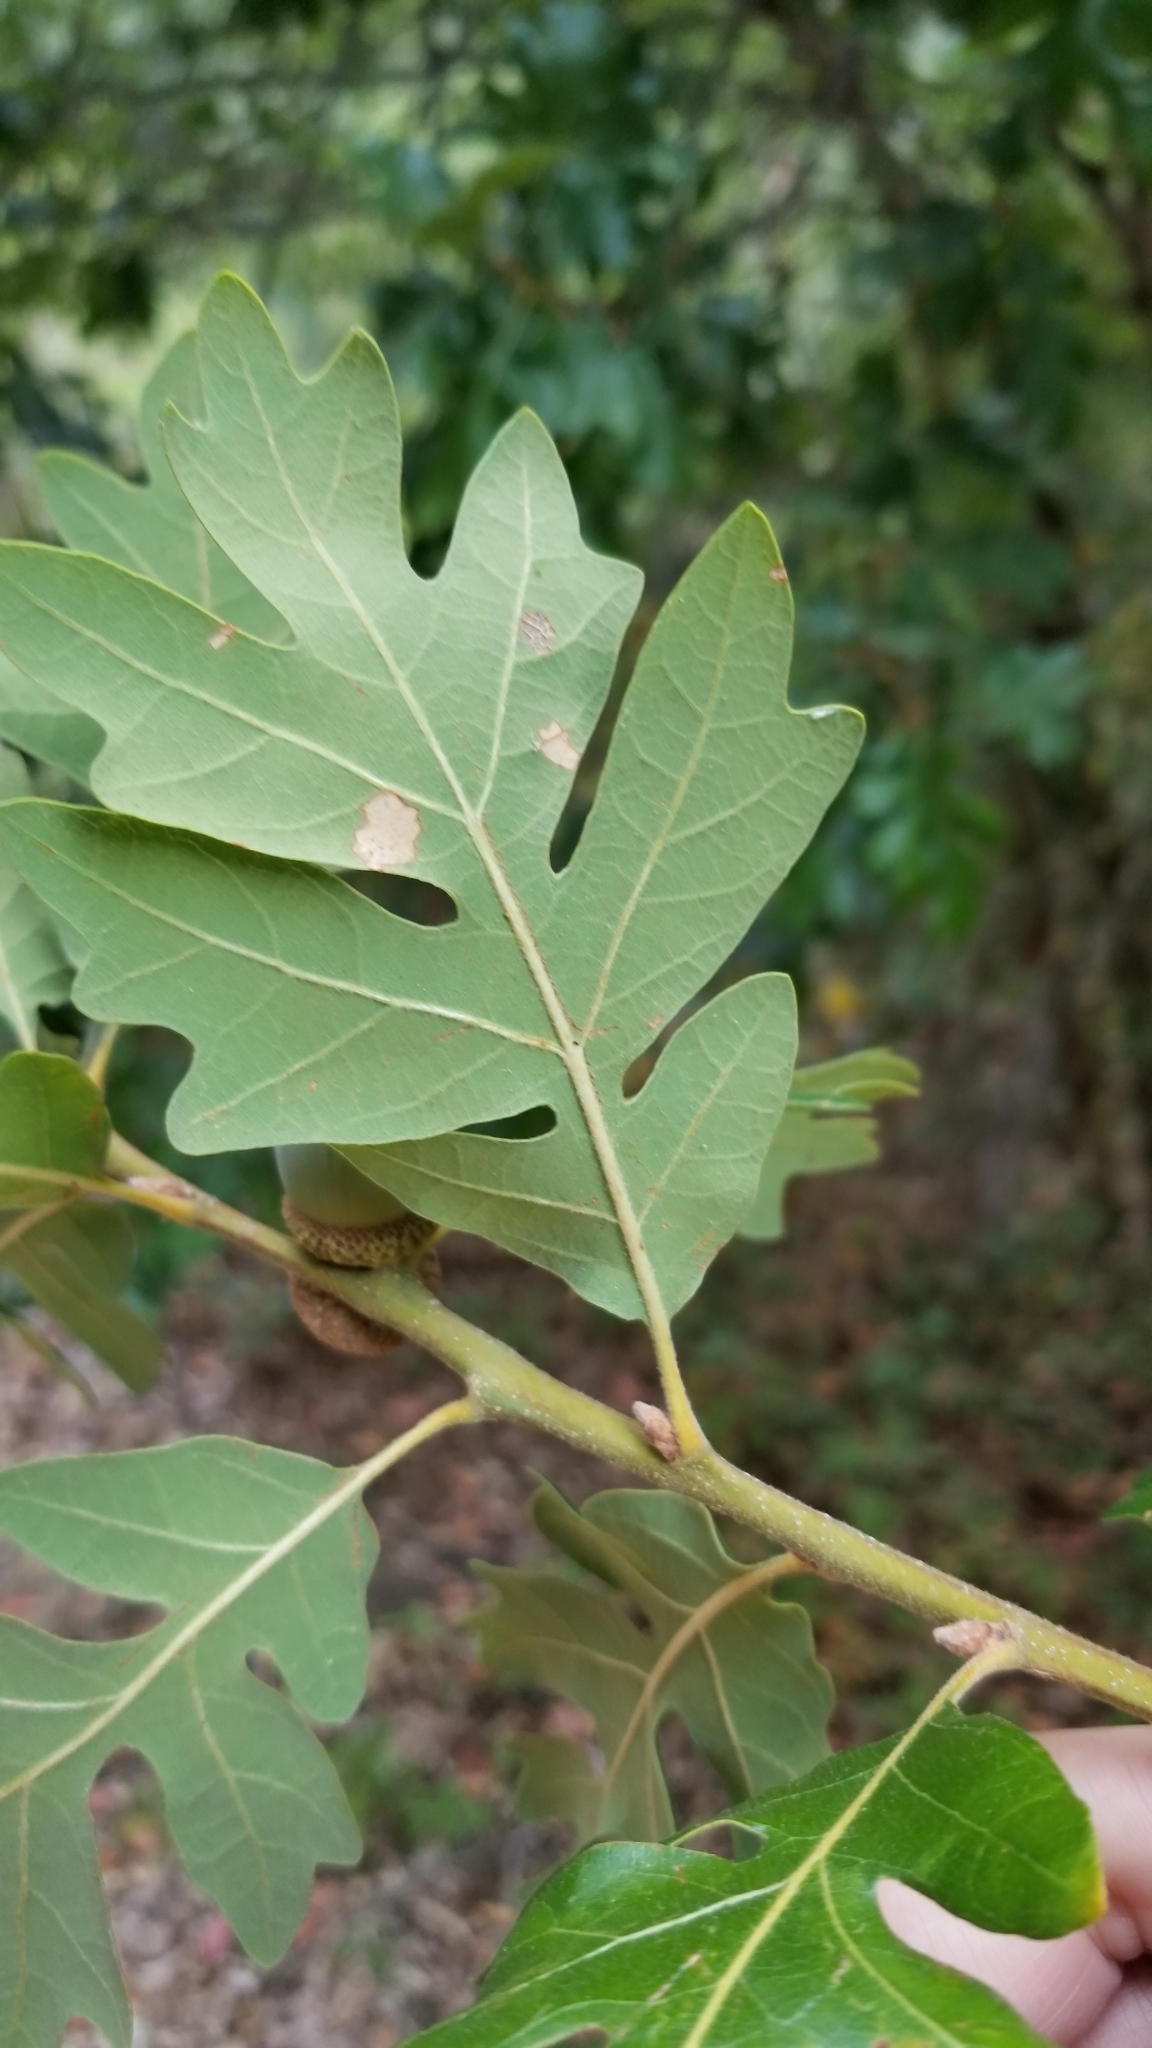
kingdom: Plantae
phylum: Tracheophyta
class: Magnoliopsida
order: Fagales
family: Fagaceae
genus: Quercus
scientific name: Quercus garryana
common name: Garry oak
